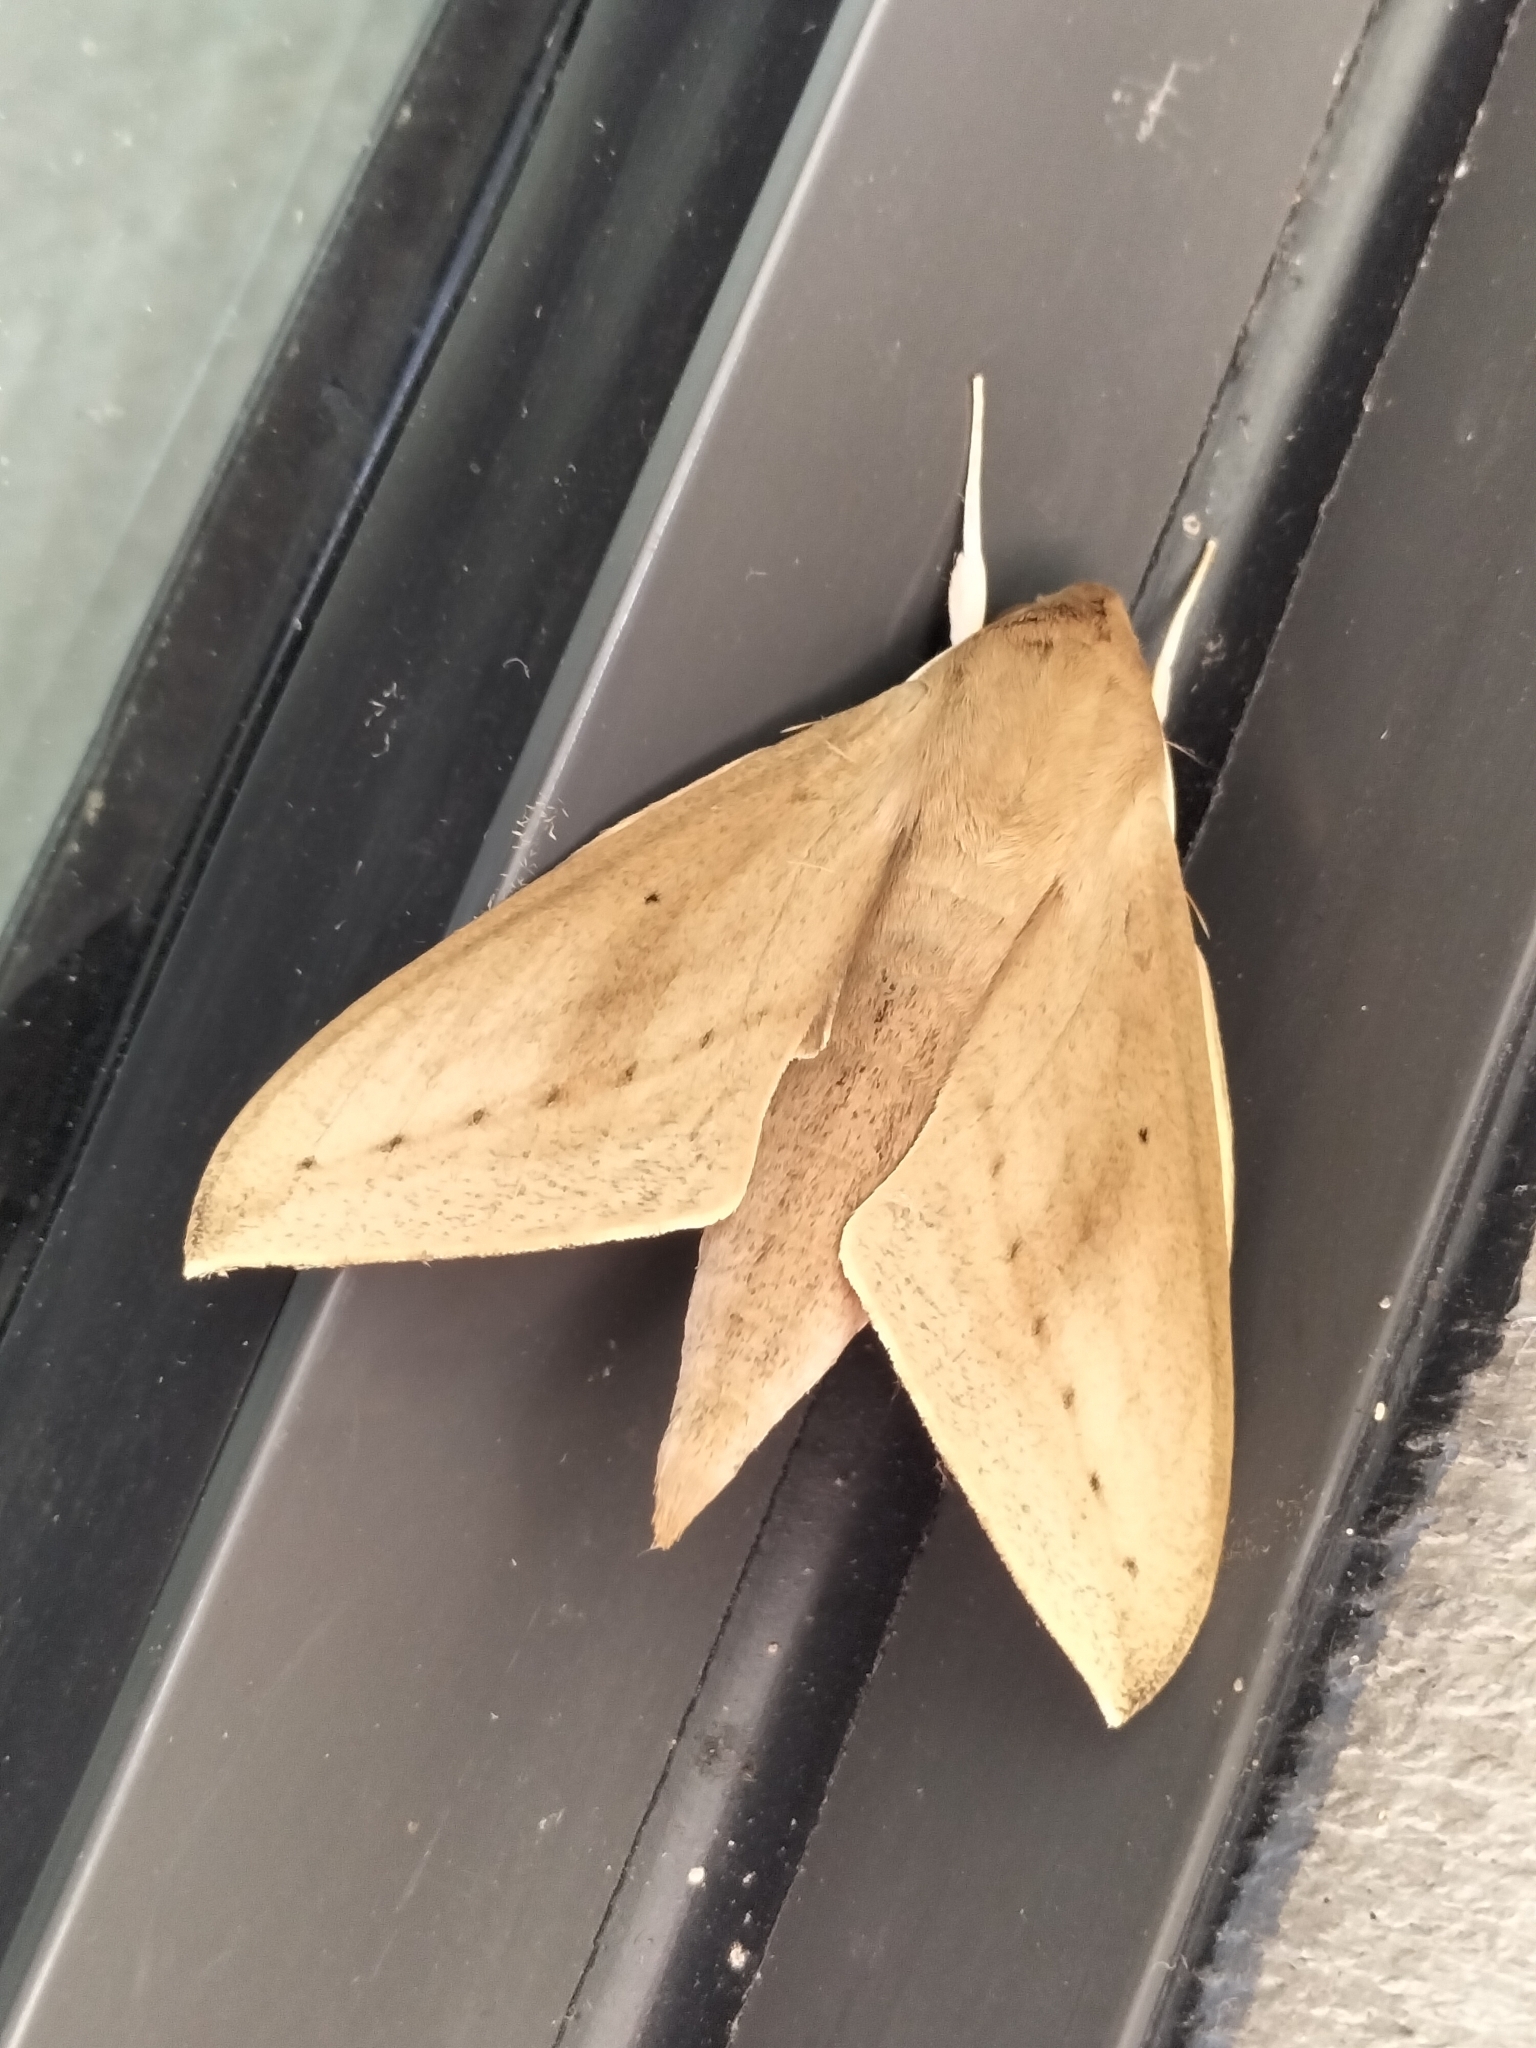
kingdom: Animalia
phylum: Arthropoda
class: Insecta
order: Lepidoptera
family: Sphingidae
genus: Theretra
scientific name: Theretra tryoni
